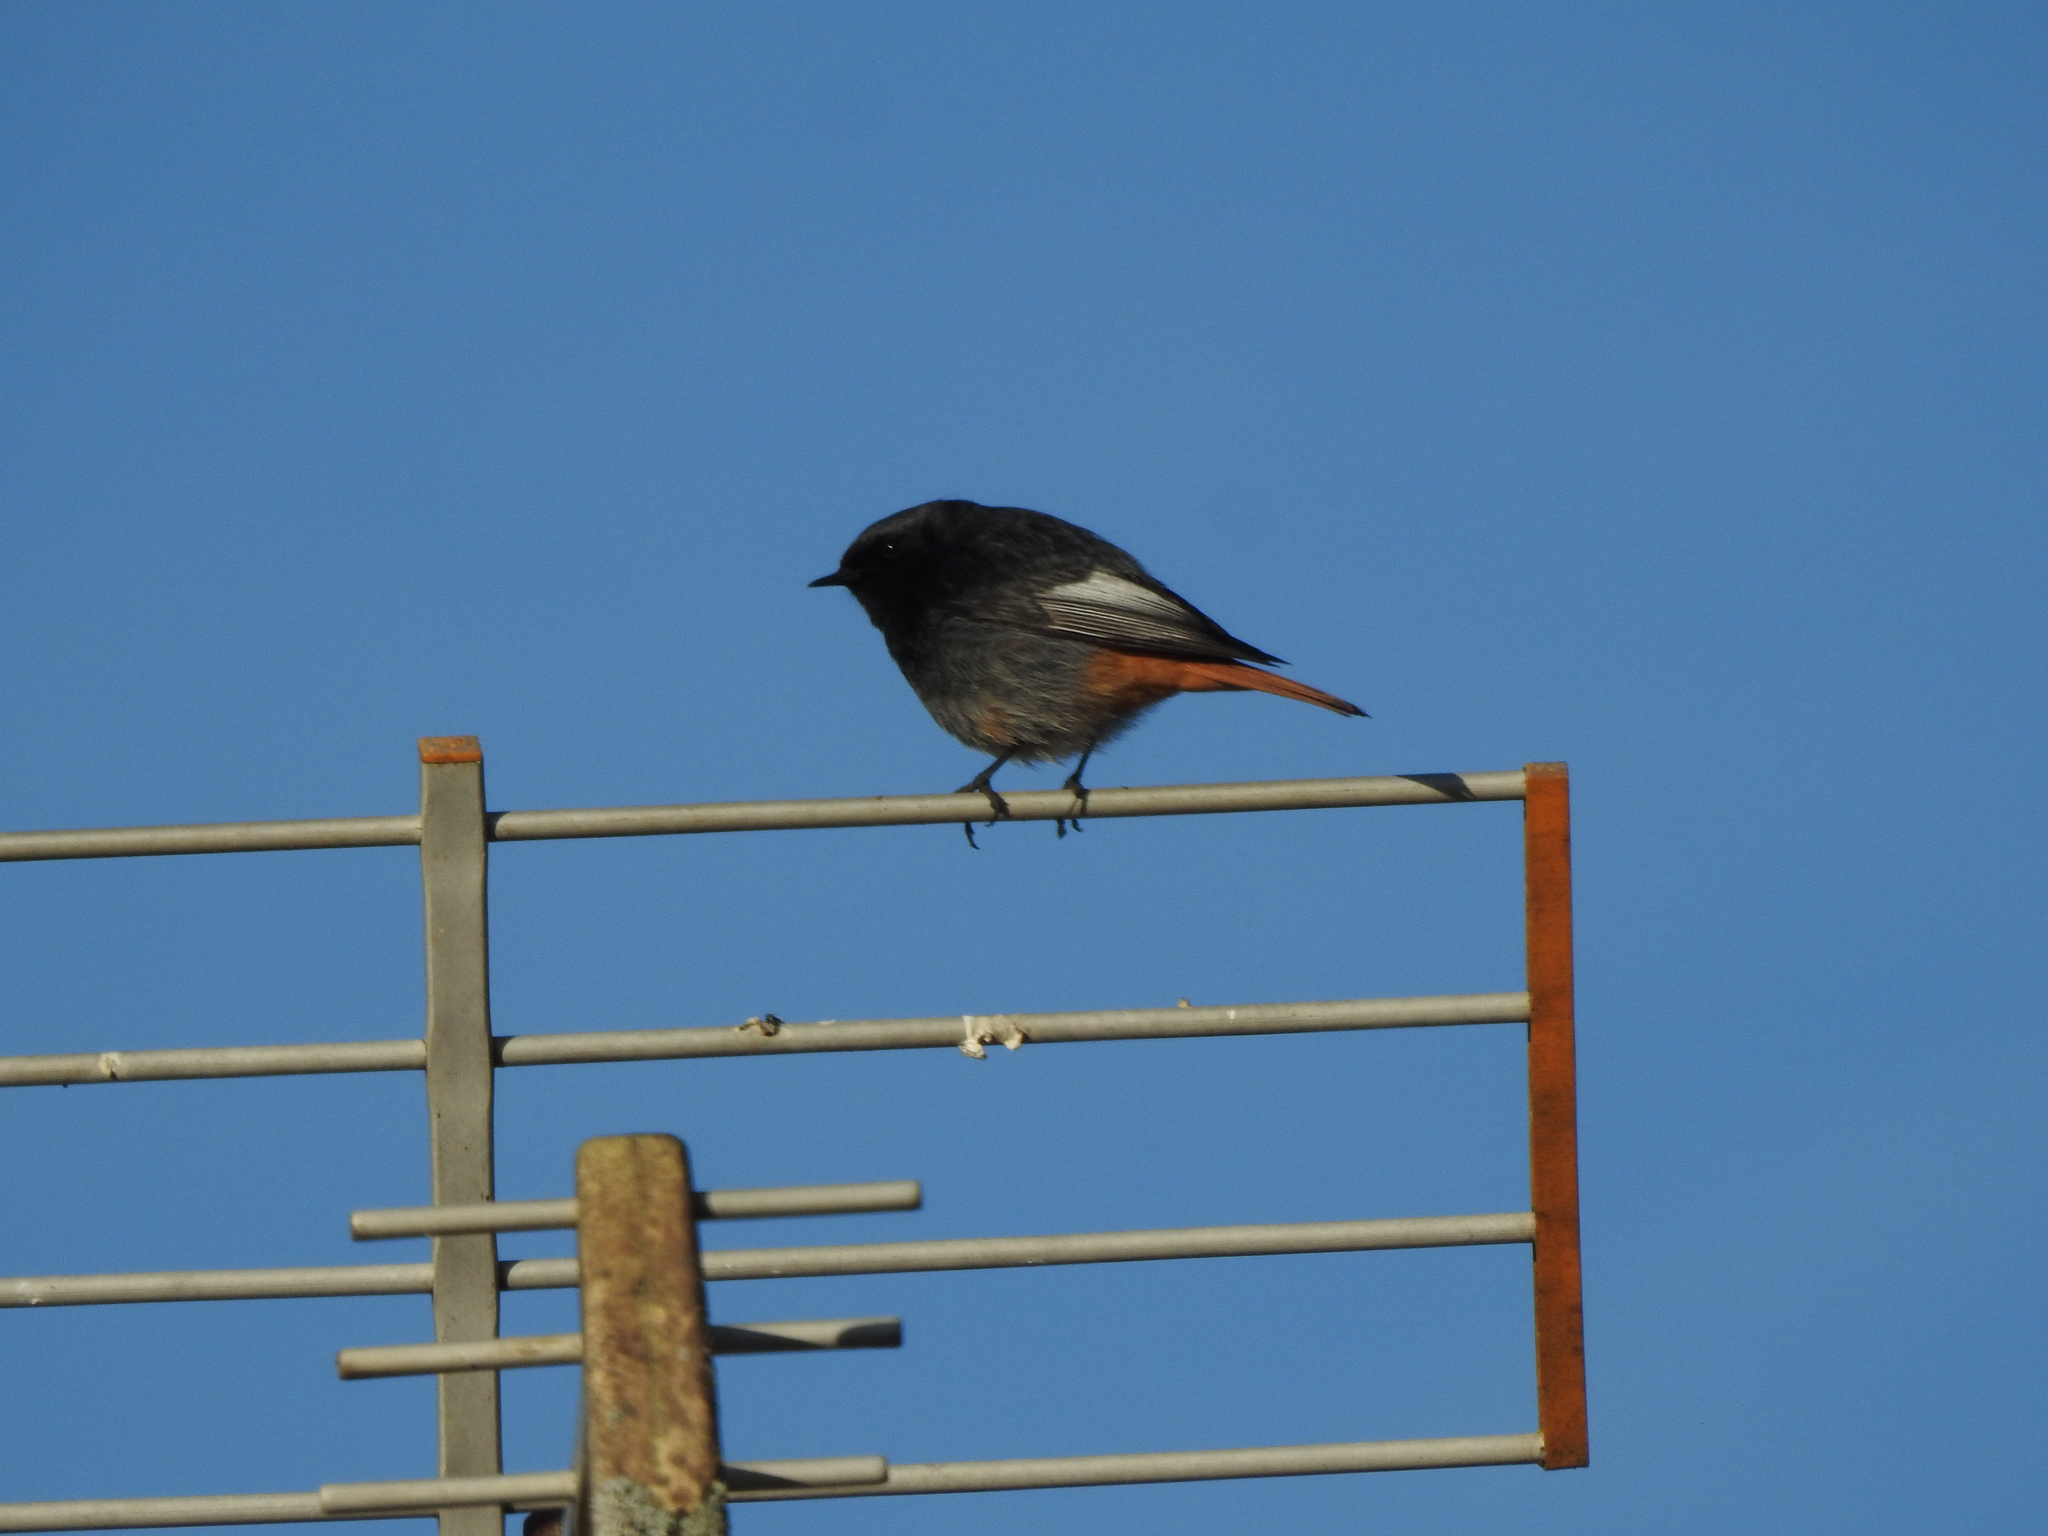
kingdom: Animalia
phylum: Chordata
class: Aves
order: Passeriformes
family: Muscicapidae
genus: Phoenicurus
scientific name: Phoenicurus ochruros
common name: Black redstart
